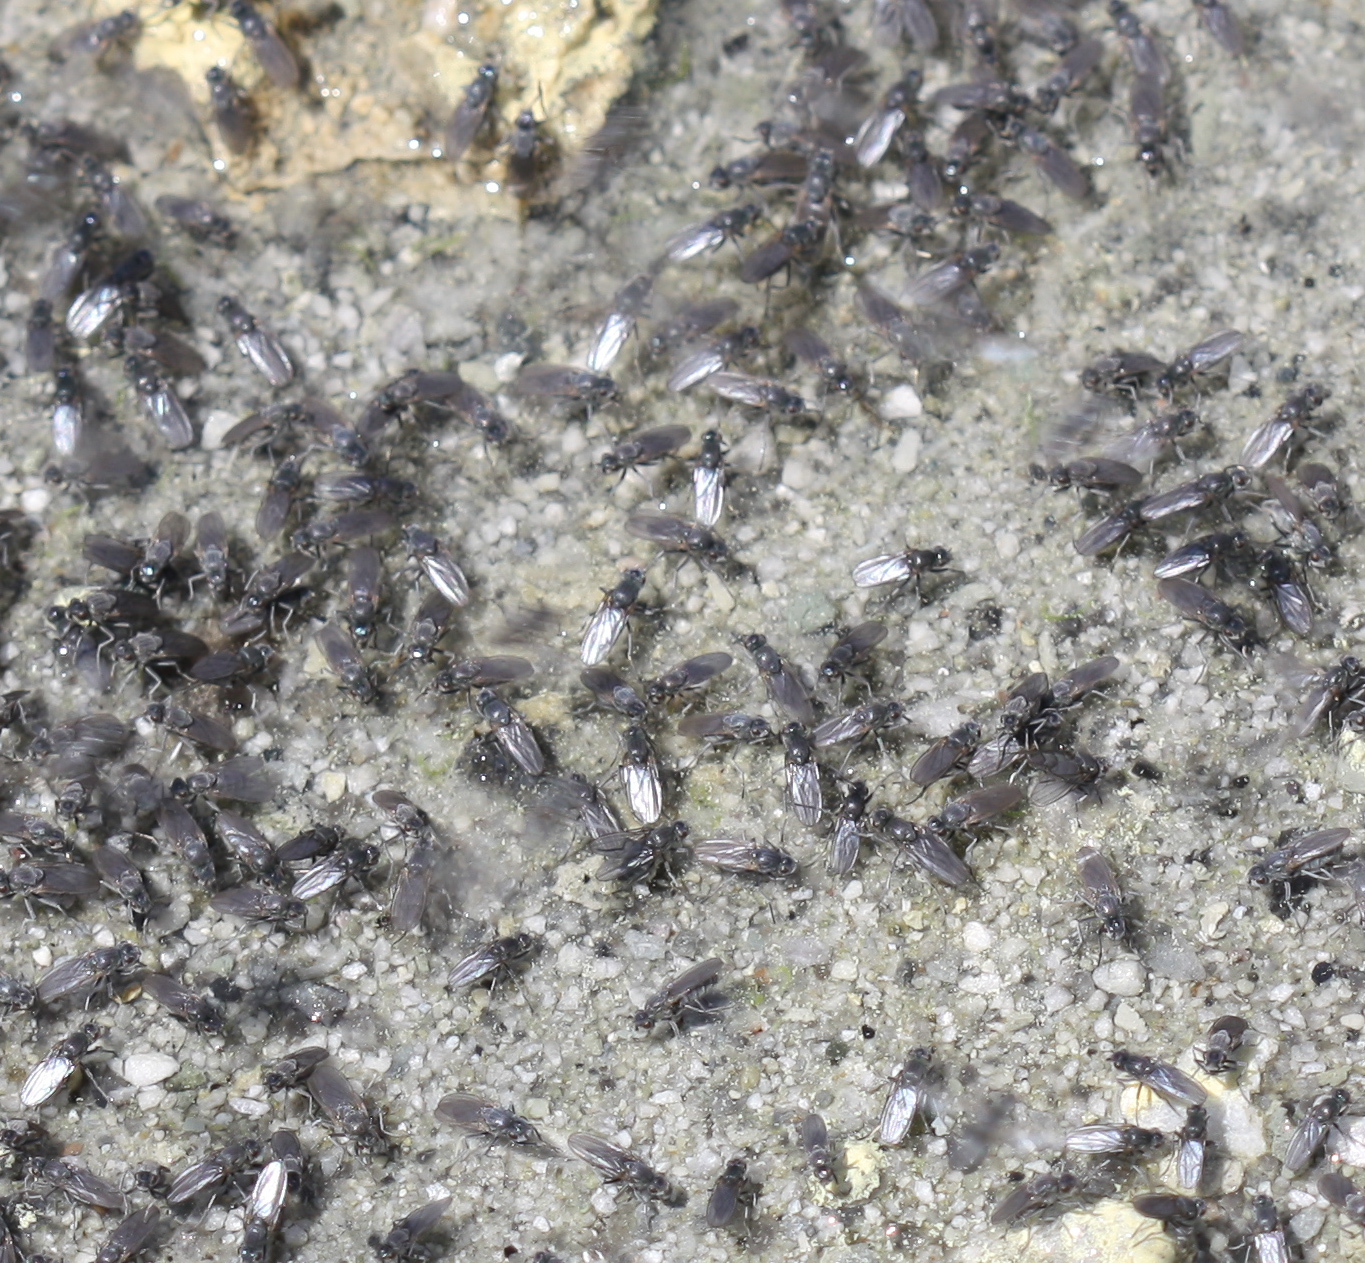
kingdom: Animalia
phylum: Arthropoda
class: Insecta
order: Diptera
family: Ephydridae
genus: Cirrula
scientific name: Cirrula hians
